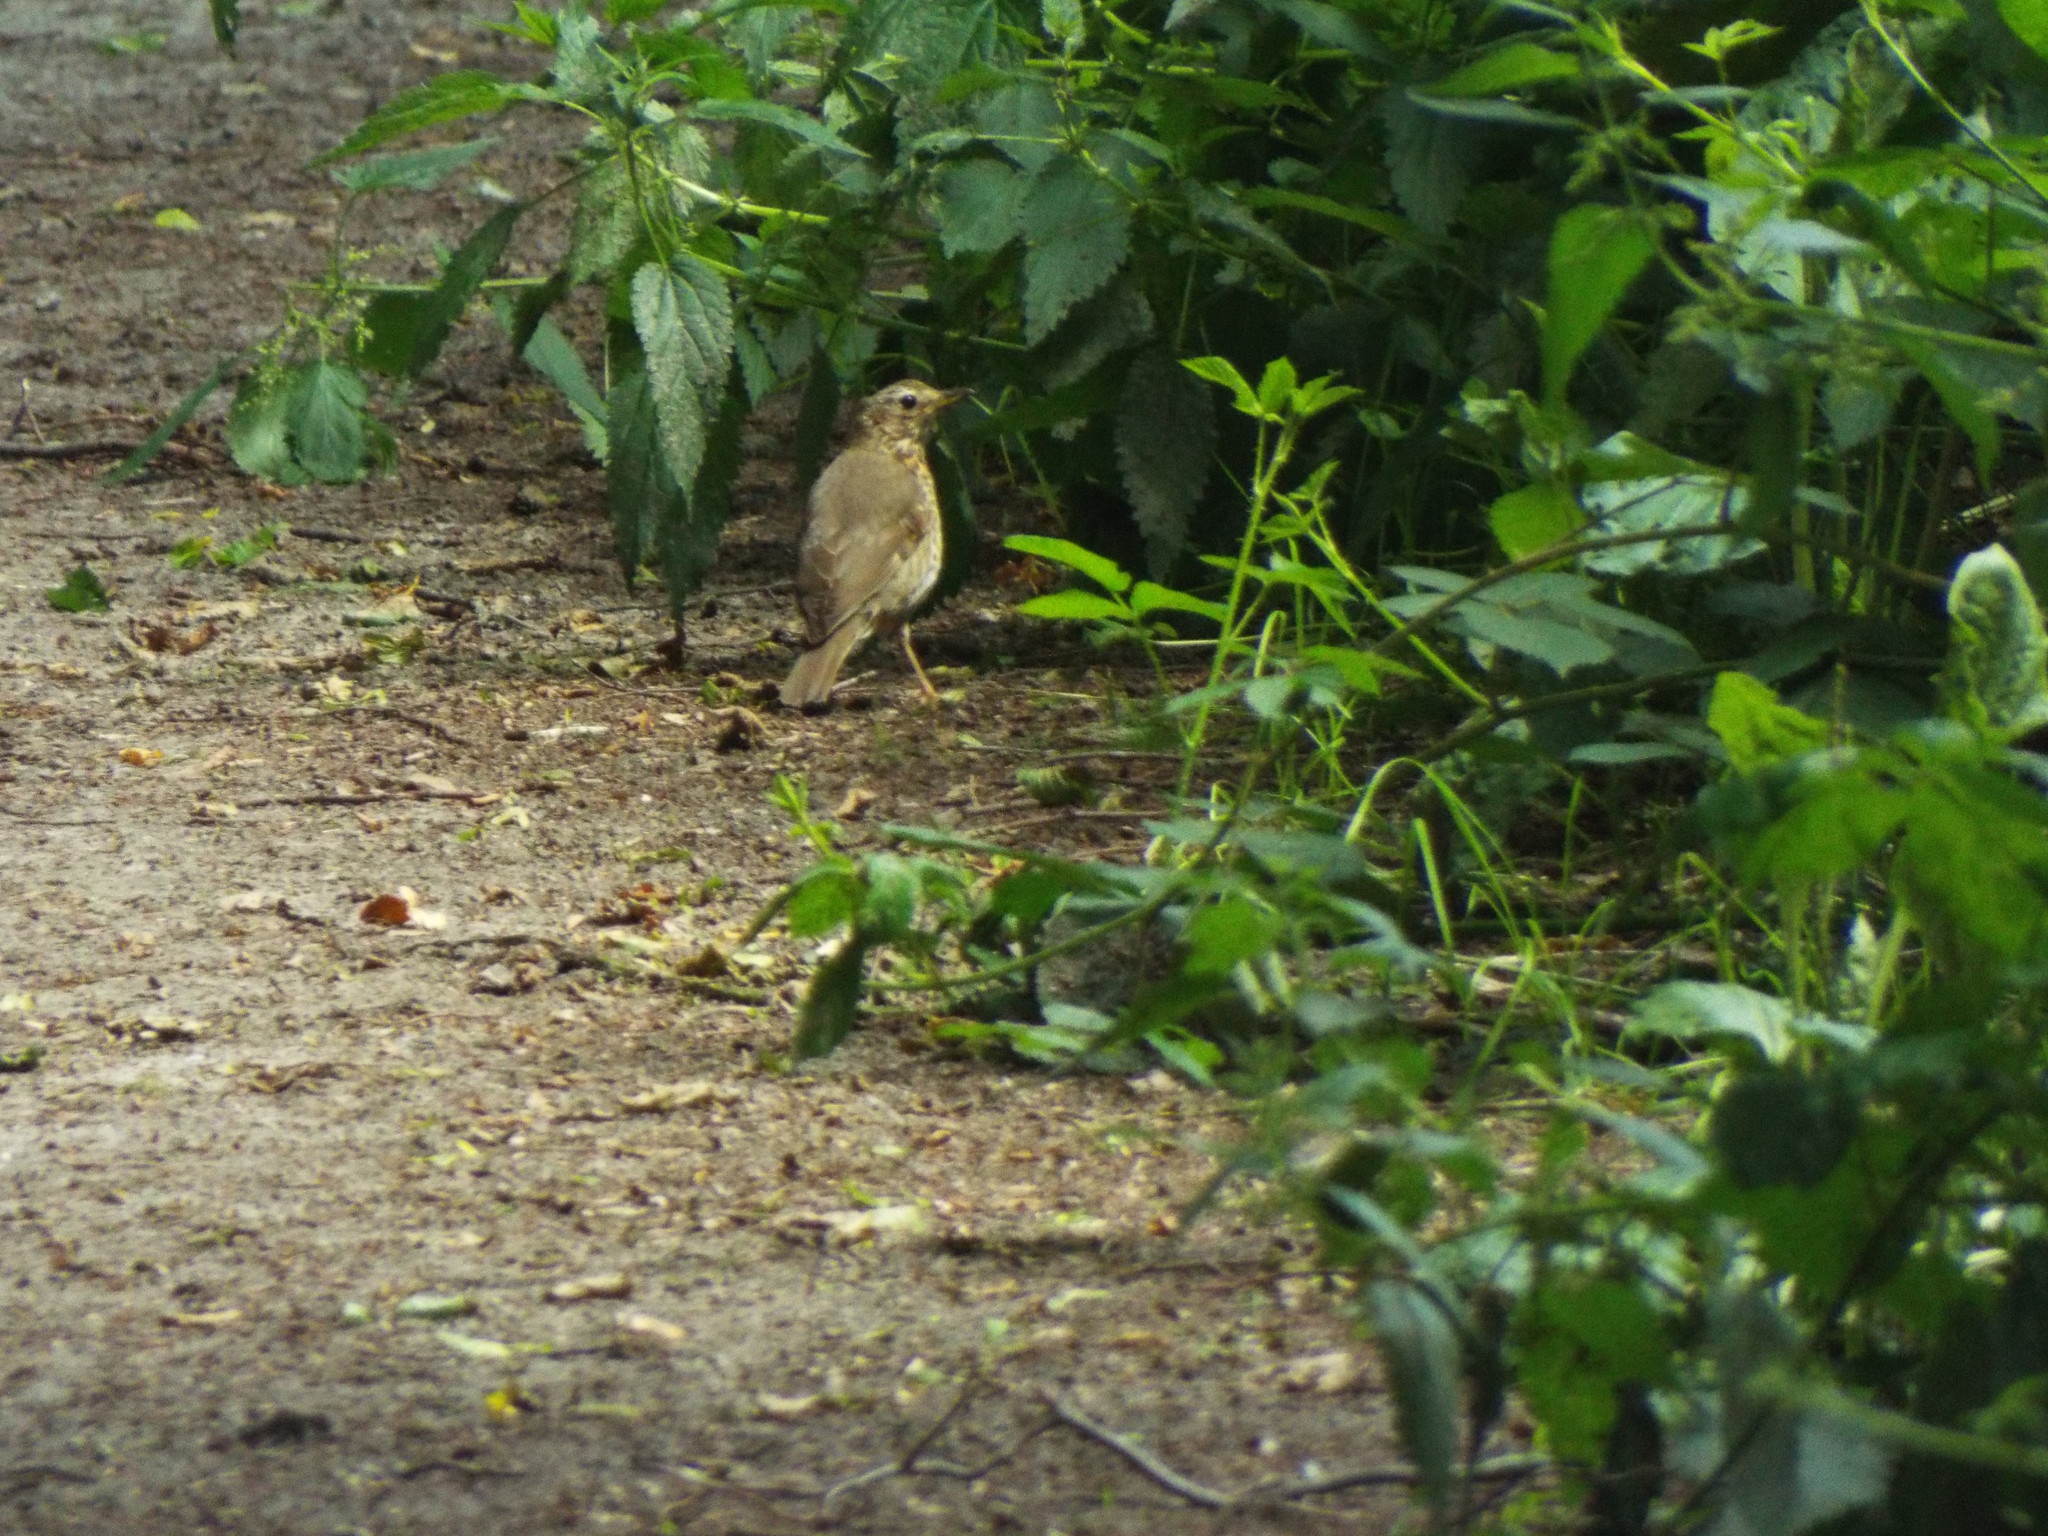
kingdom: Animalia
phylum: Chordata
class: Aves
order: Passeriformes
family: Turdidae
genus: Turdus
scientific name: Turdus philomelos
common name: Song thrush
